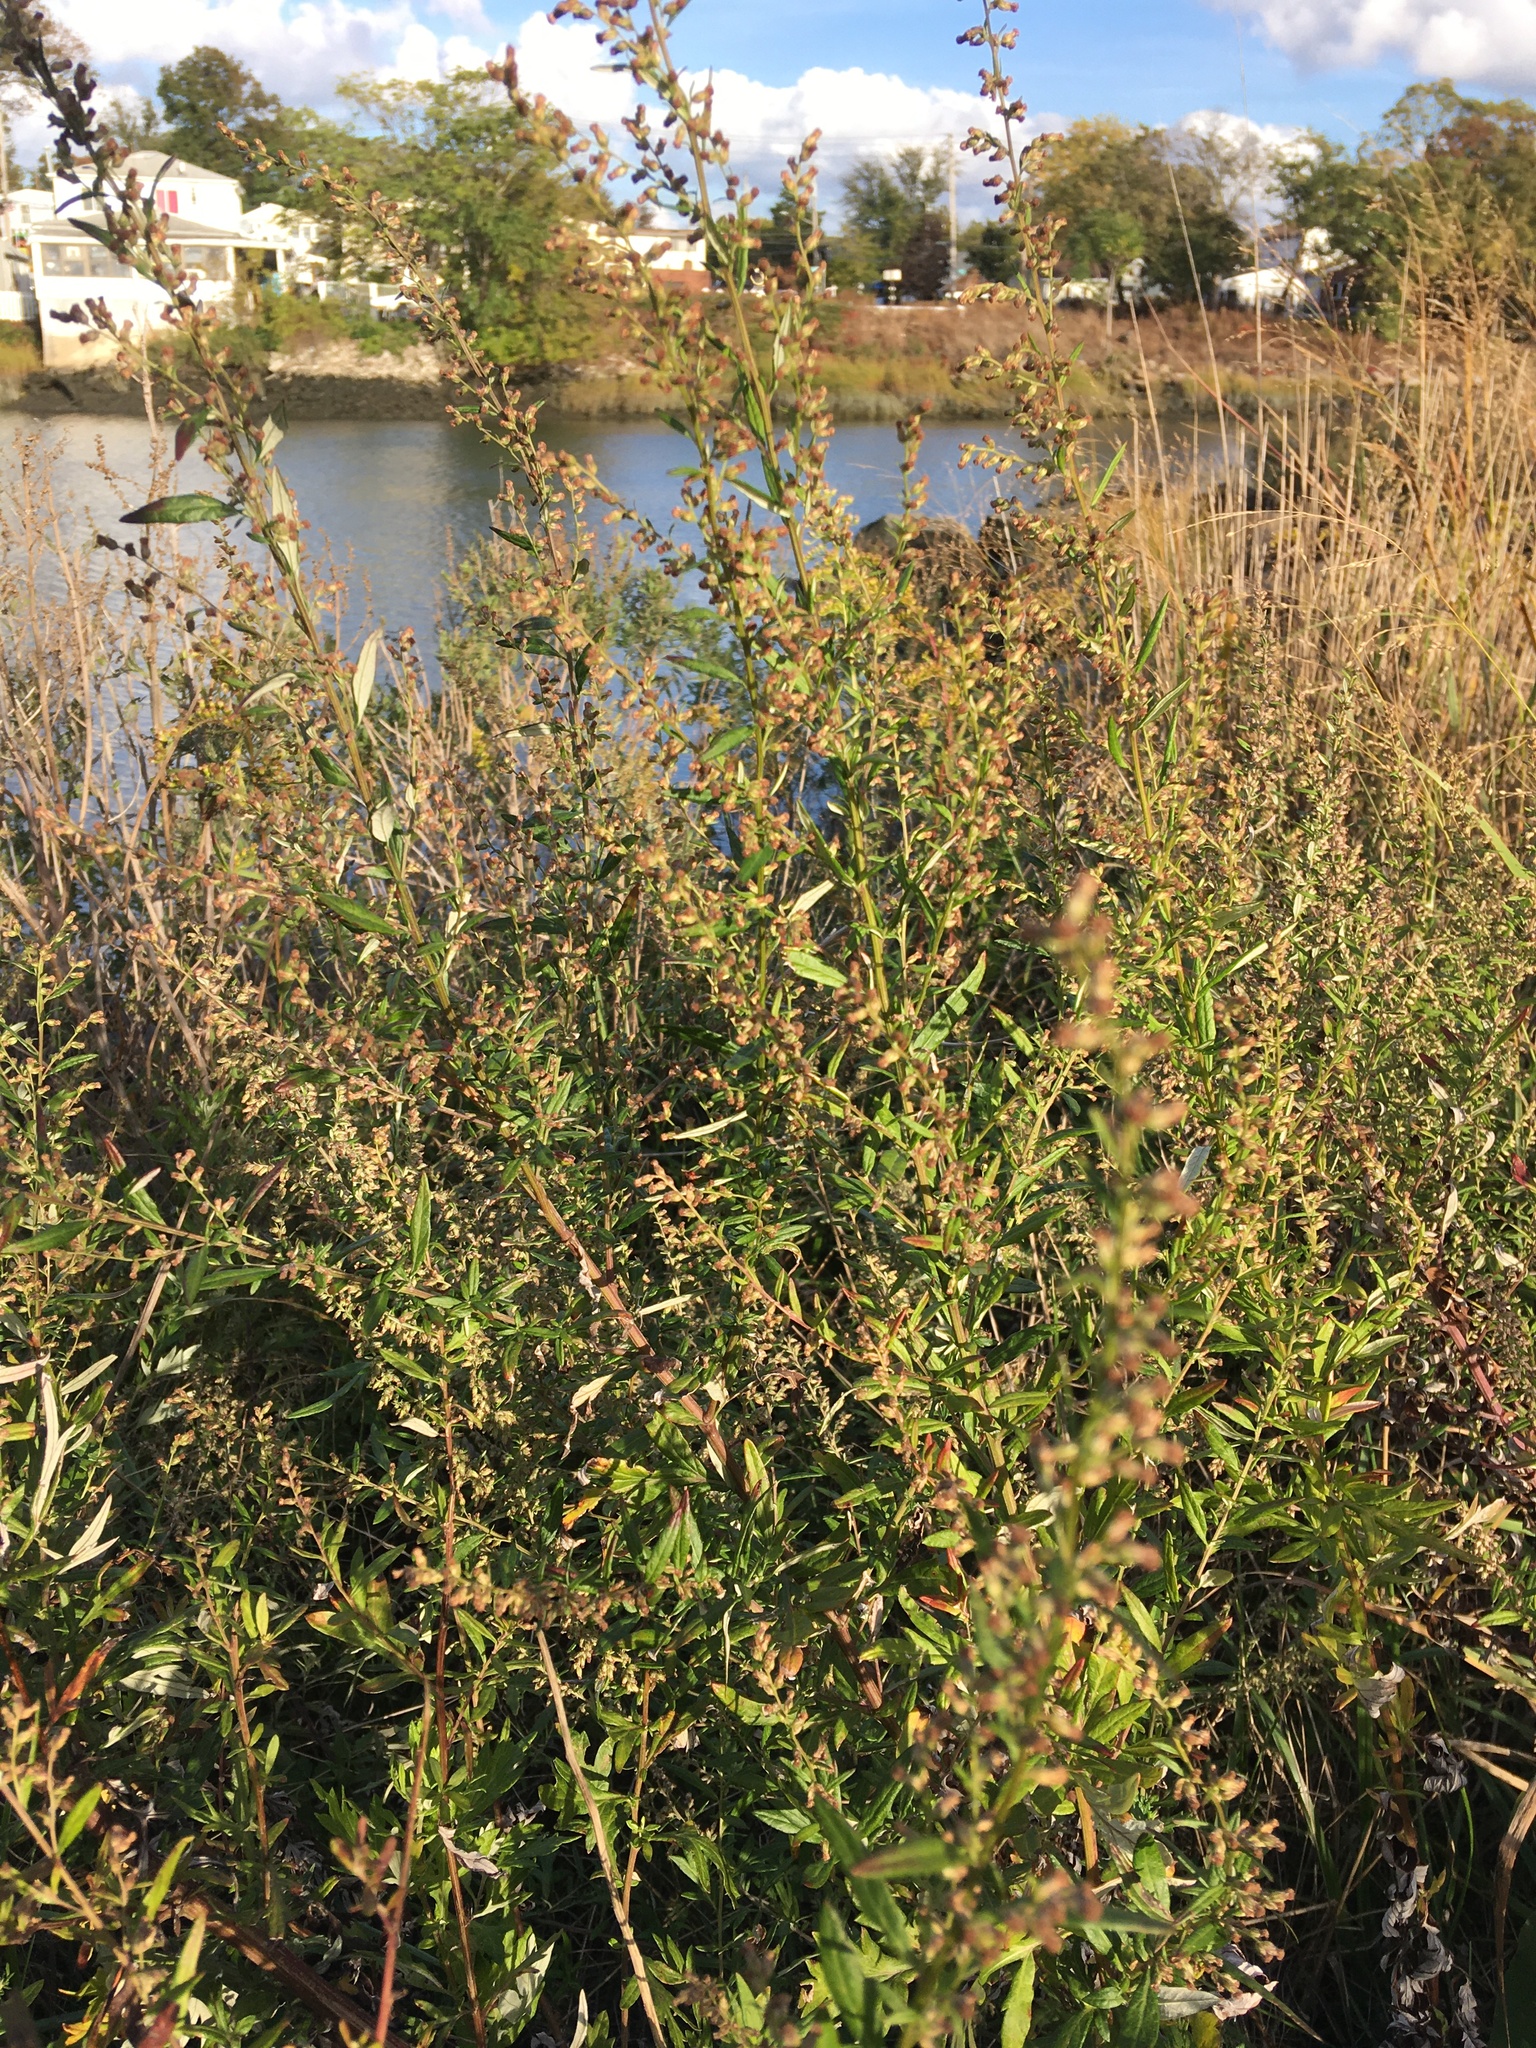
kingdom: Plantae
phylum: Tracheophyta
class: Magnoliopsida
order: Asterales
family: Asteraceae
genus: Artemisia
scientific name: Artemisia vulgaris
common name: Mugwort
